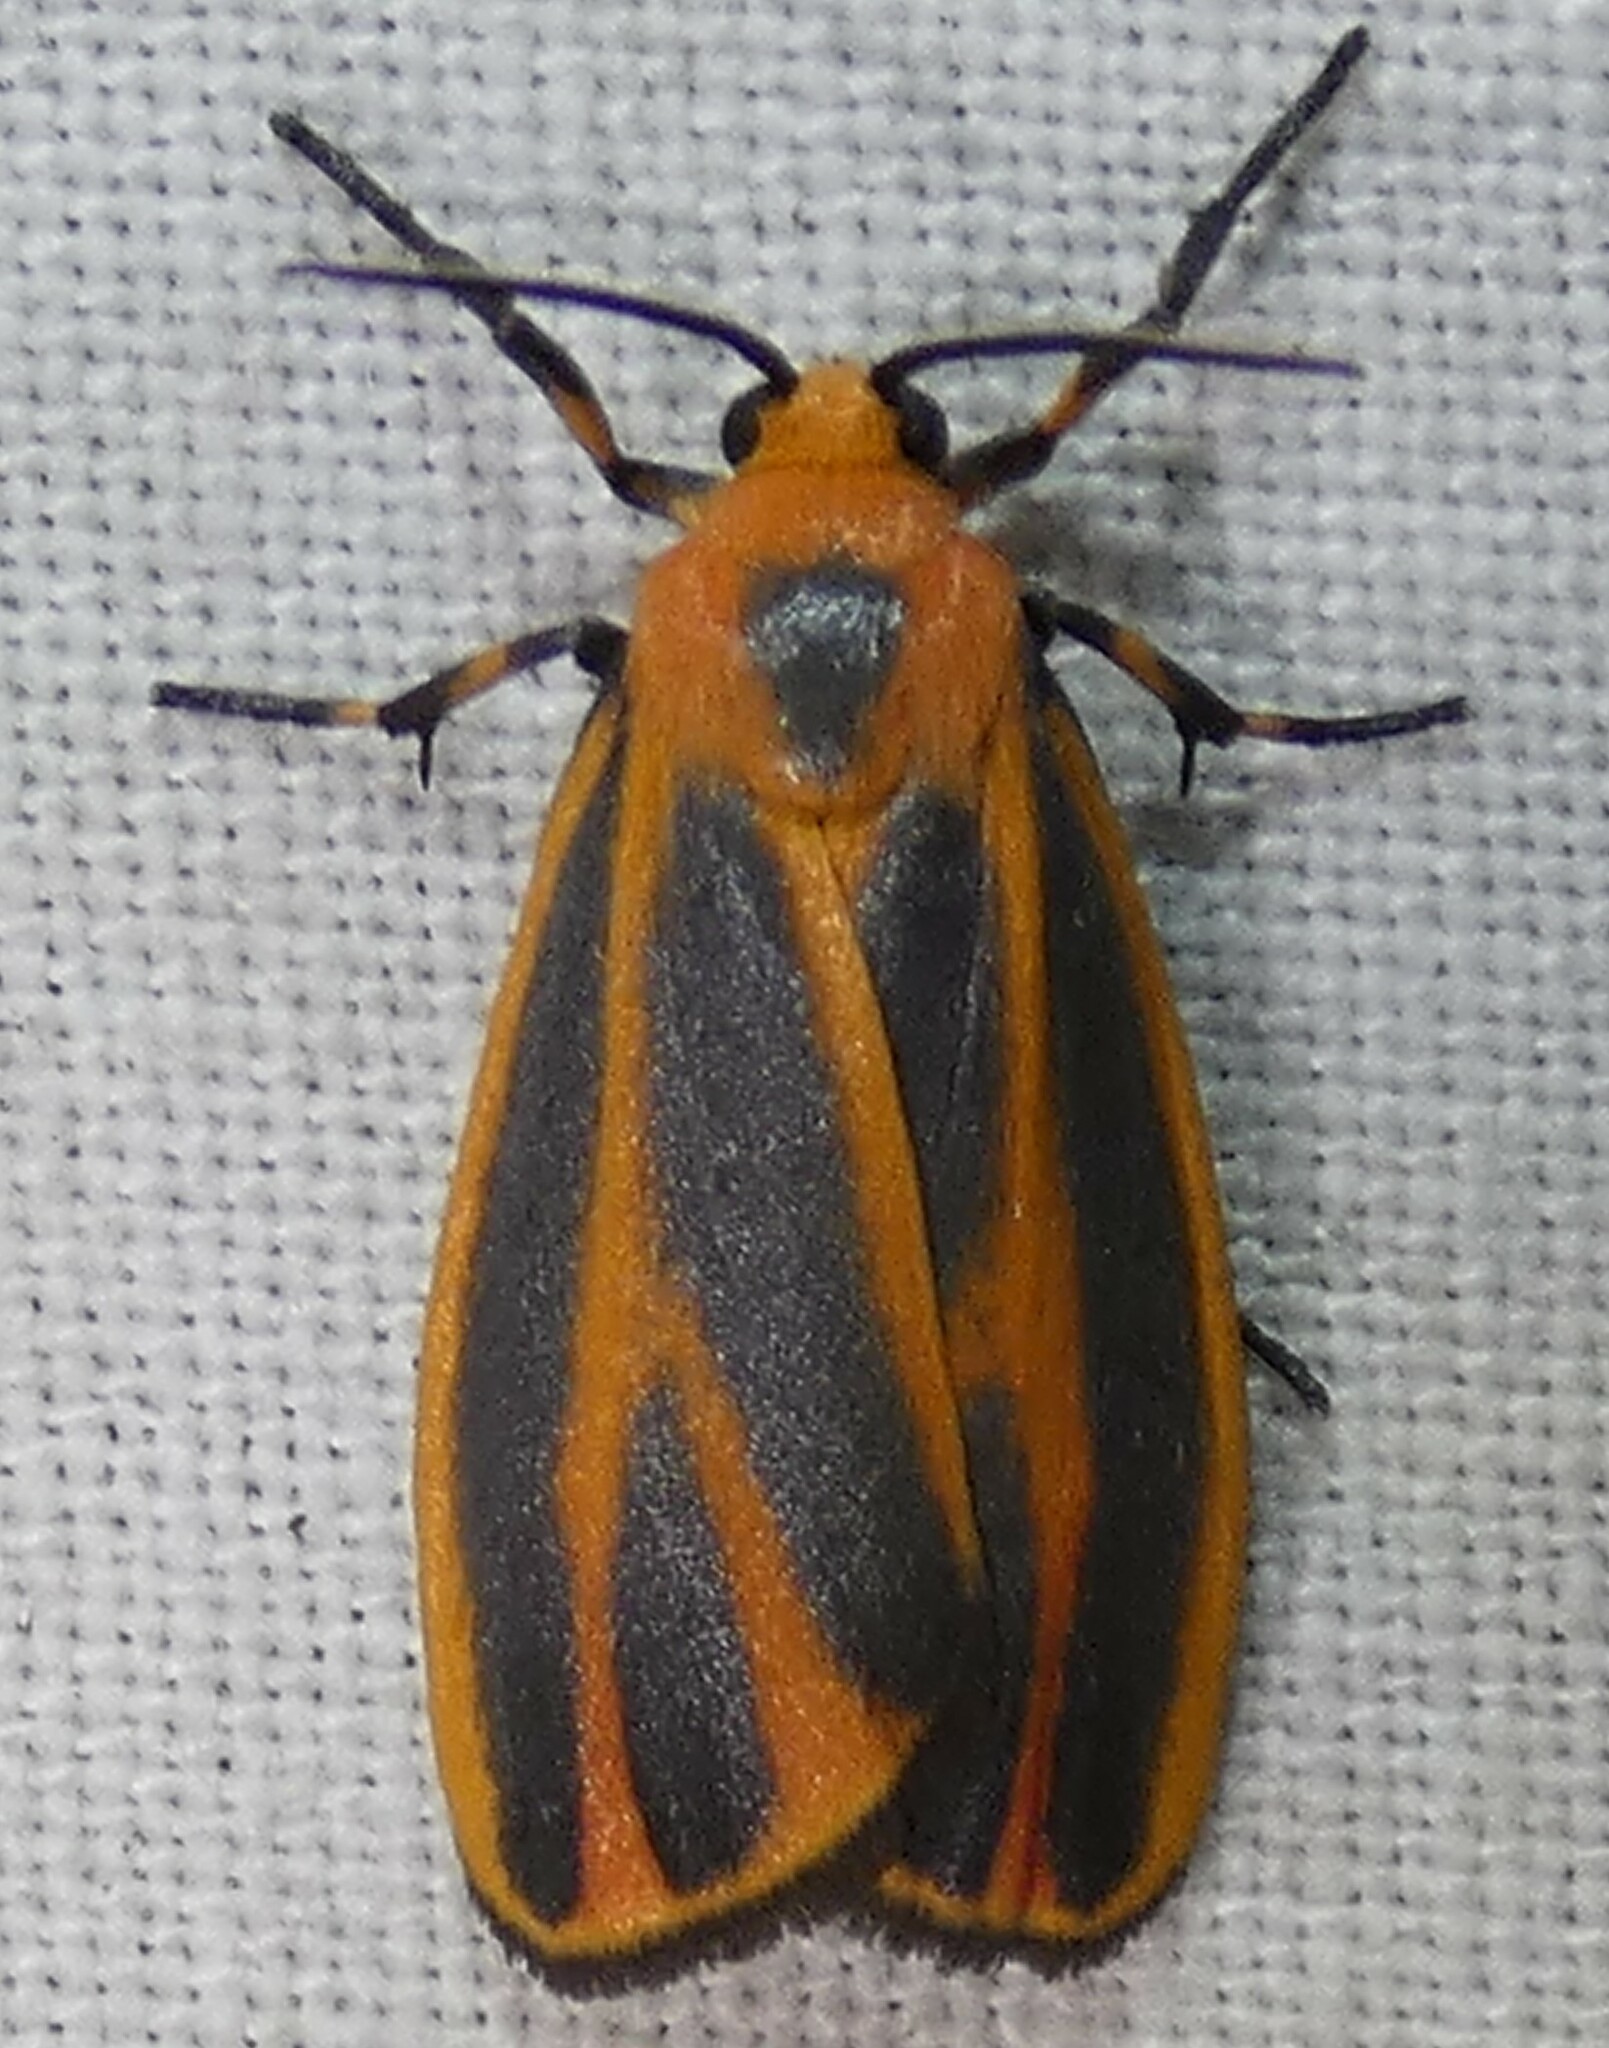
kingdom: Animalia
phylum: Arthropoda
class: Insecta
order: Lepidoptera
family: Erebidae
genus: Hypoprepia
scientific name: Hypoprepia fucosa
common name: Painted lichen moth
